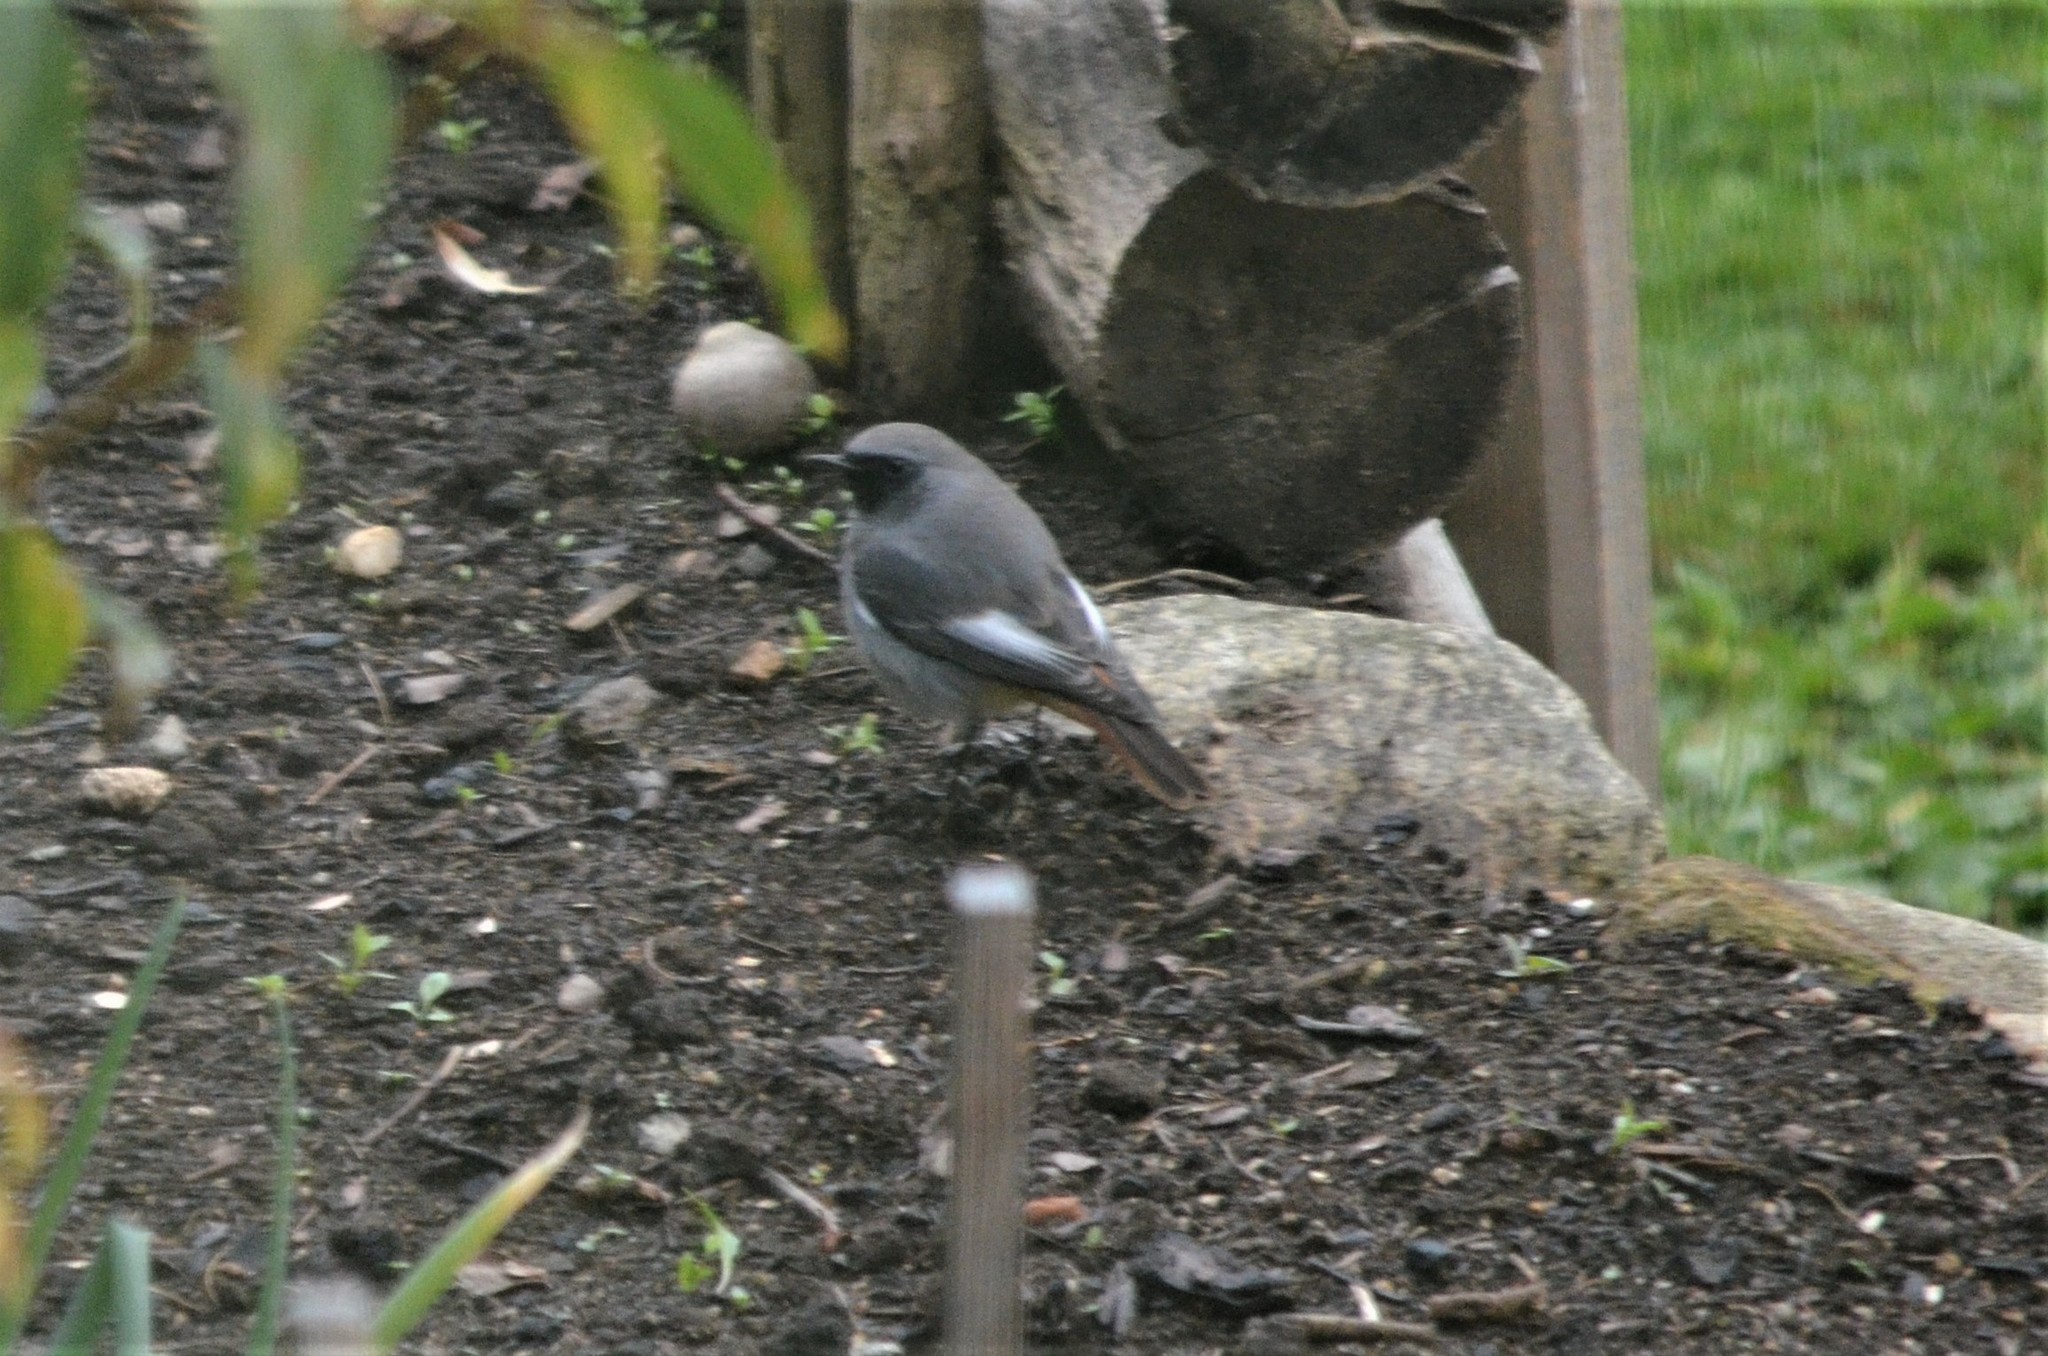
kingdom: Animalia
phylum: Chordata
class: Aves
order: Passeriformes
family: Muscicapidae
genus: Phoenicurus
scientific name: Phoenicurus ochruros
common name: Black redstart
